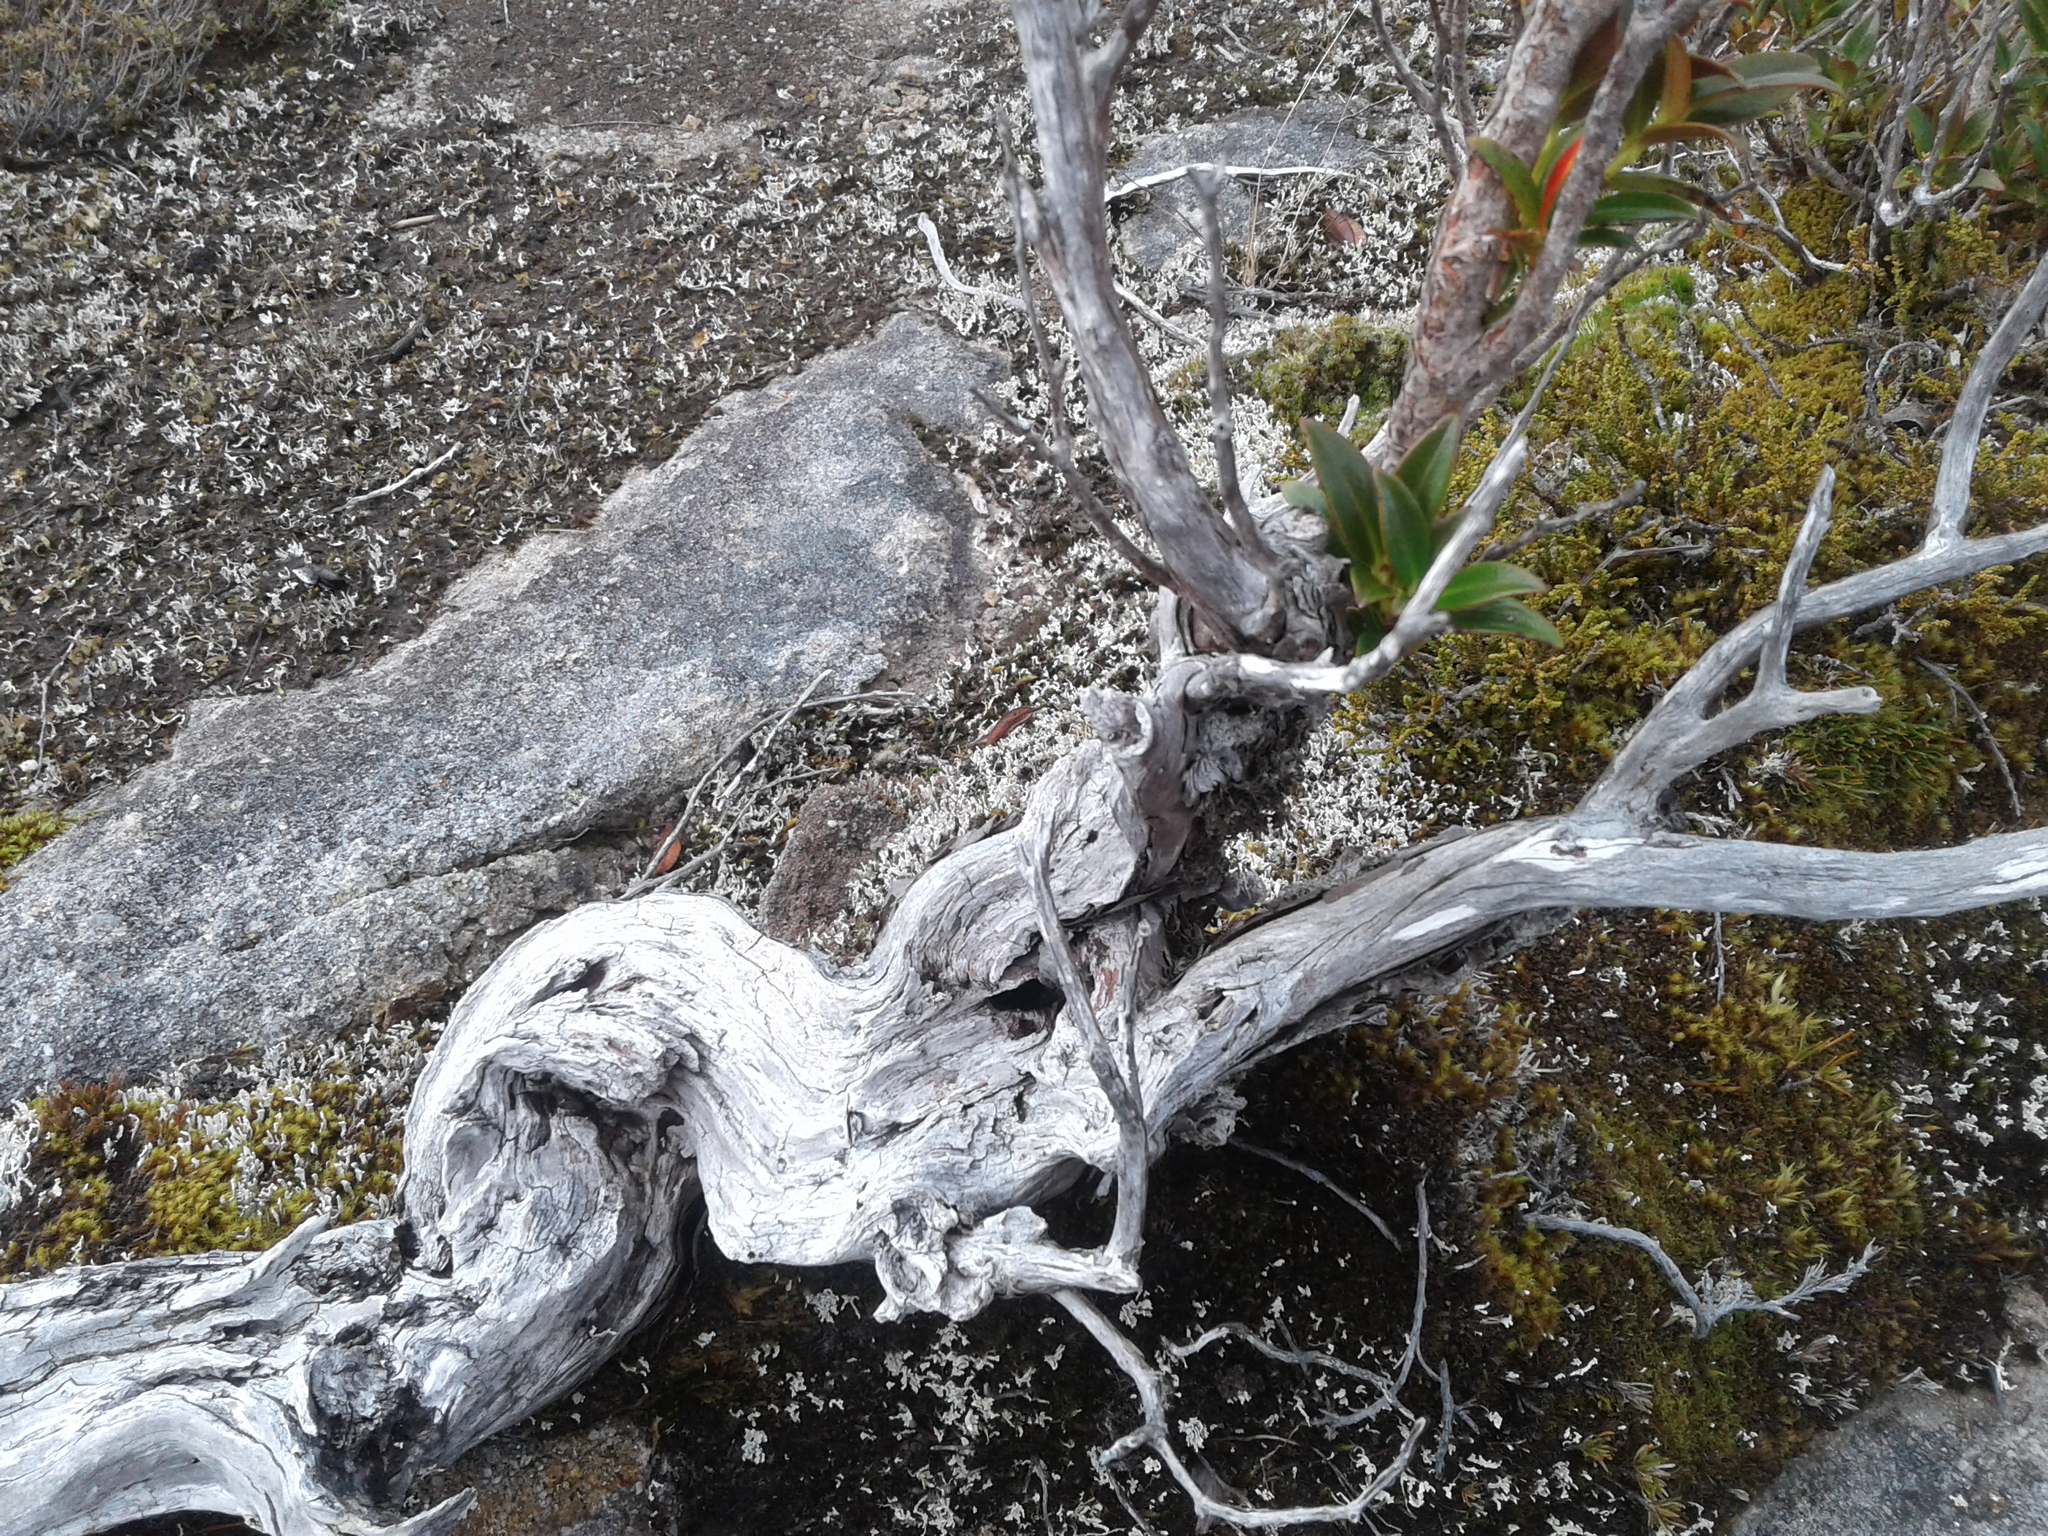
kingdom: Plantae
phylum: Tracheophyta
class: Magnoliopsida
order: Myrtales
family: Myrtaceae
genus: Metrosideros
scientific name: Metrosideros umbellata
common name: Southern rata
